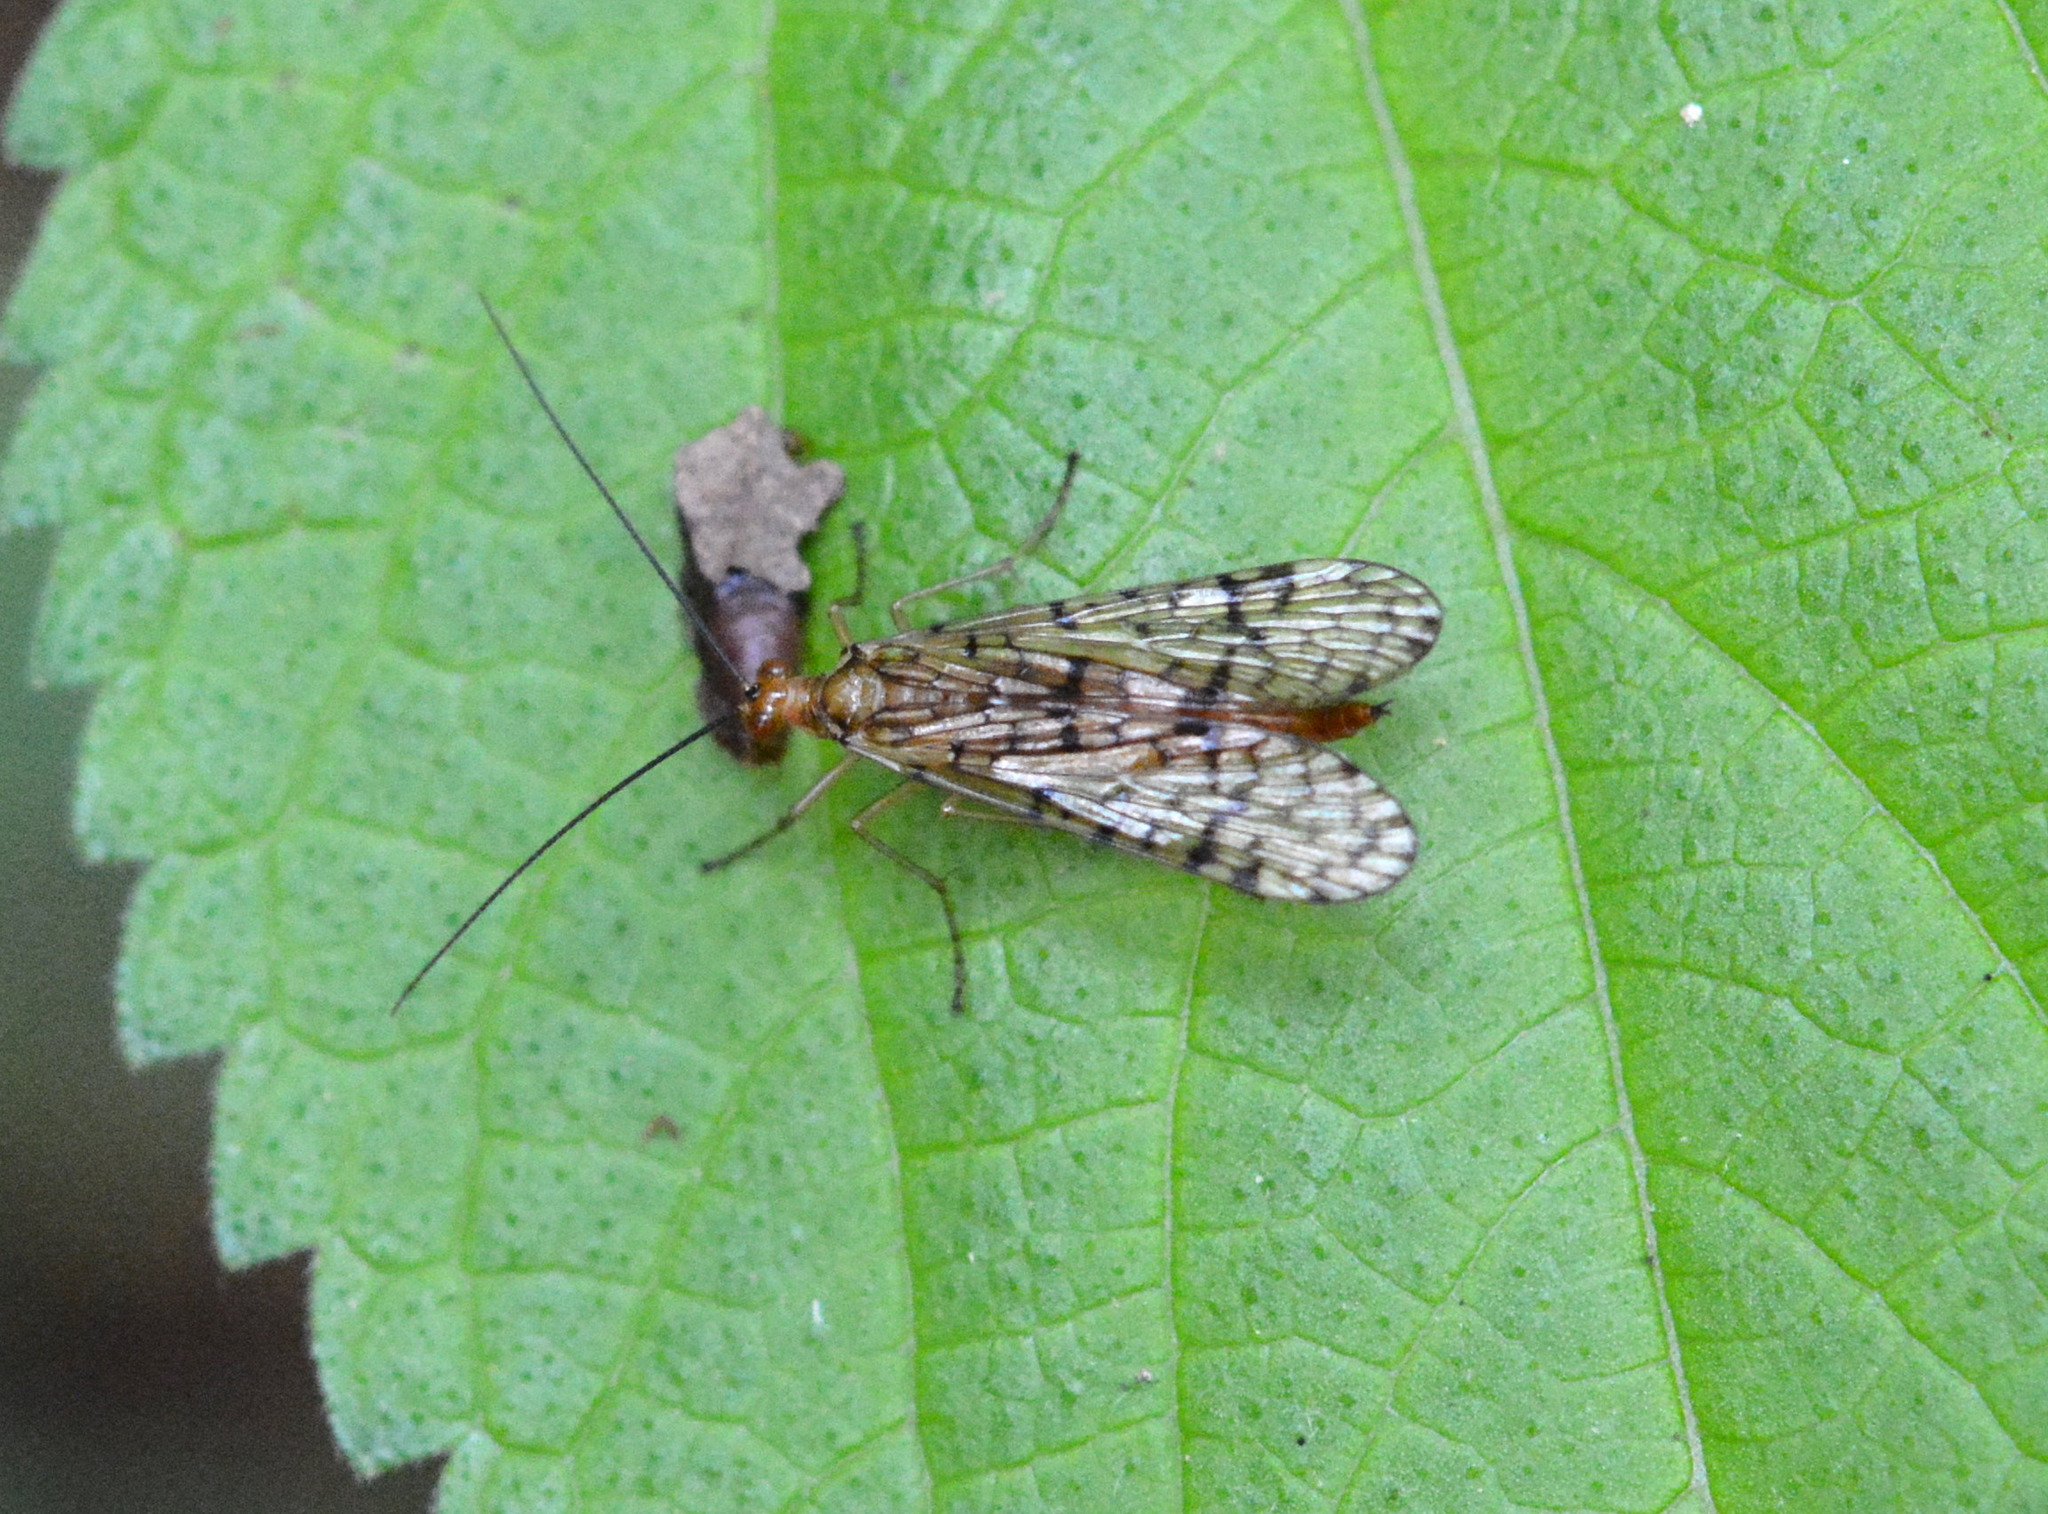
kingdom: Animalia
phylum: Arthropoda
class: Insecta
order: Mecoptera
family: Panorpidae
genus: Panorpa
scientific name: Panorpa vernalis
